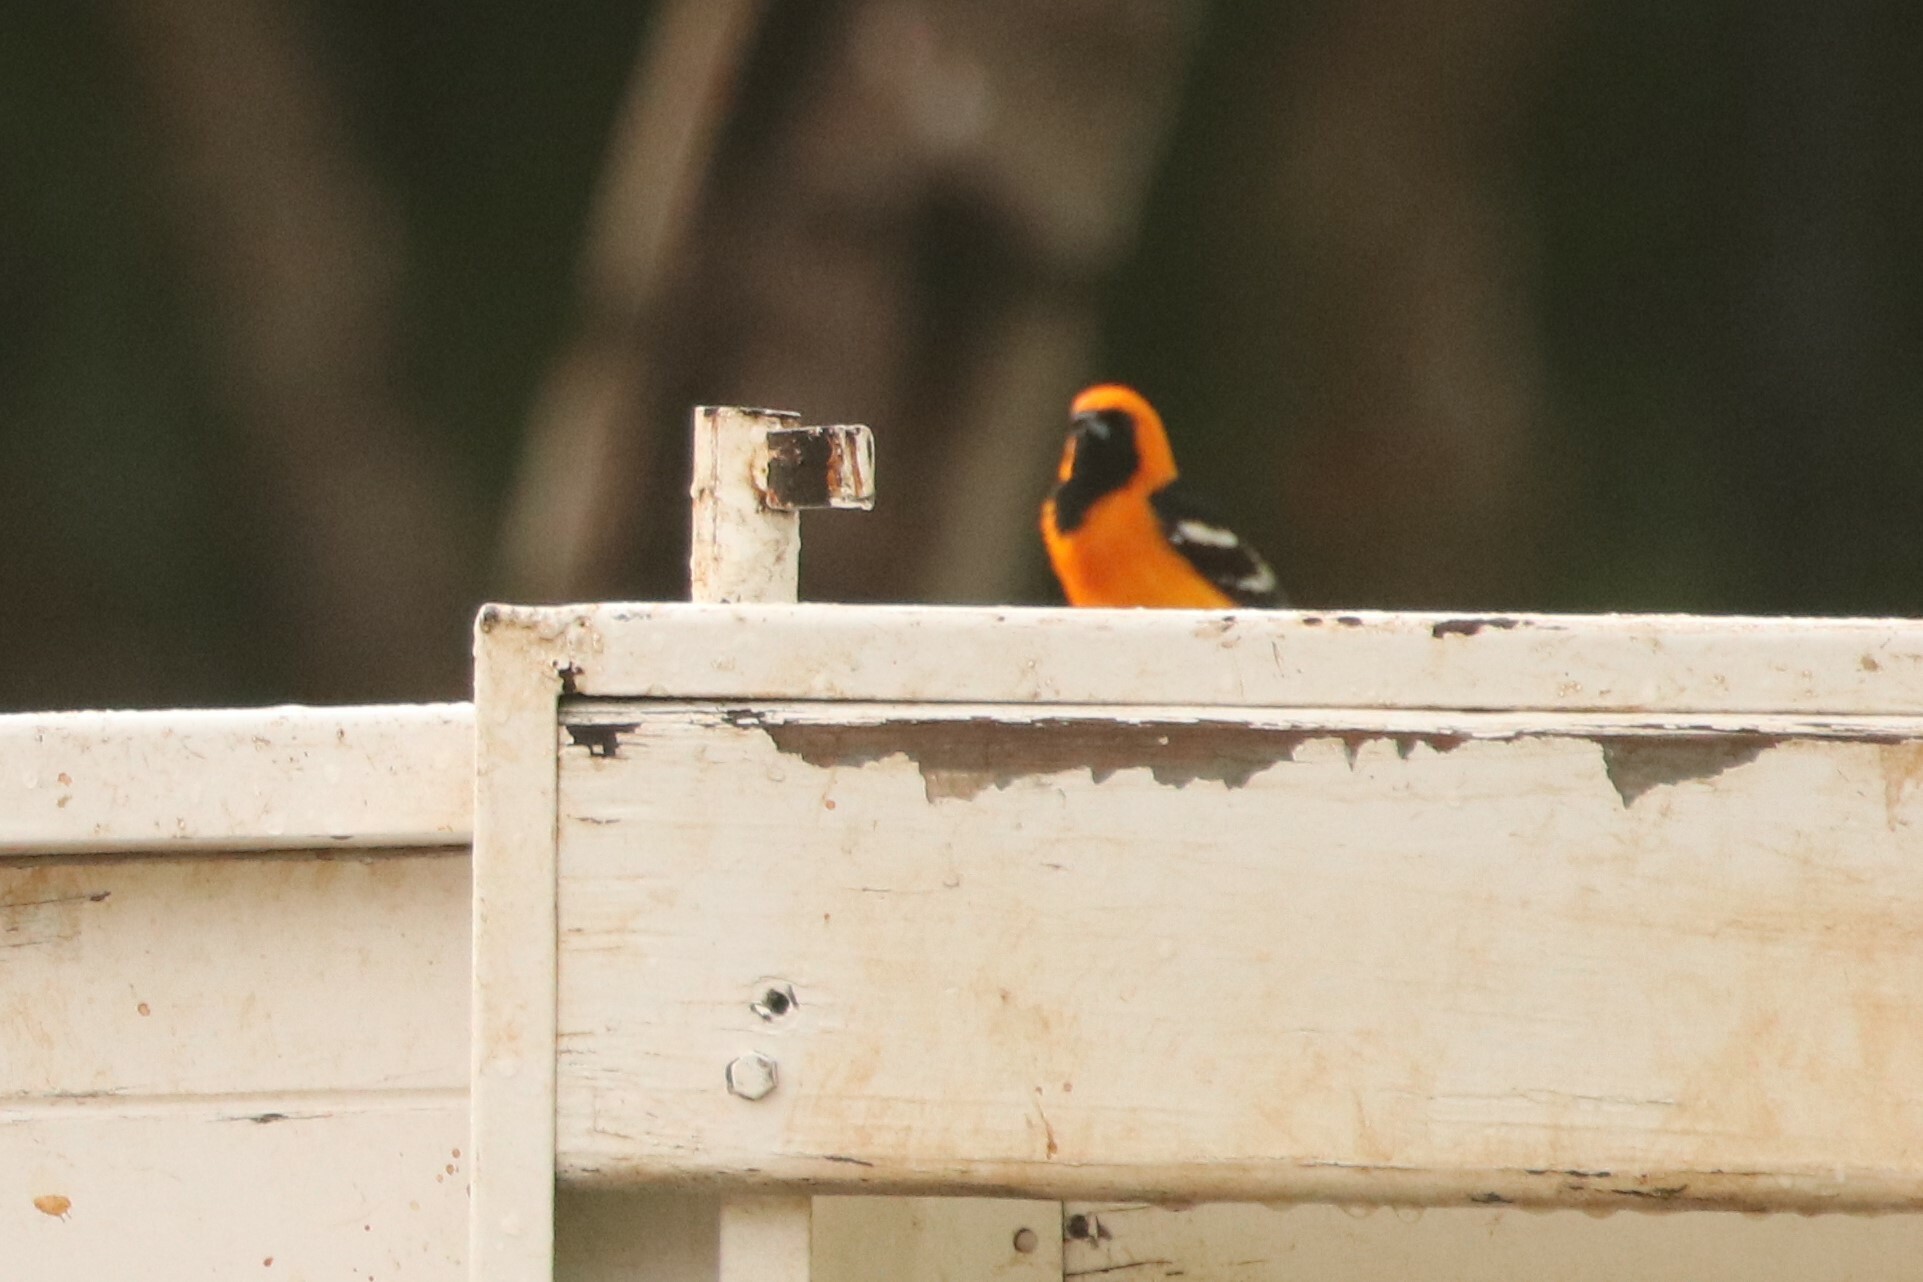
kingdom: Animalia
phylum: Chordata
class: Aves
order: Passeriformes
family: Icteridae
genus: Icterus
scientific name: Icterus cucullatus
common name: Hooded oriole
